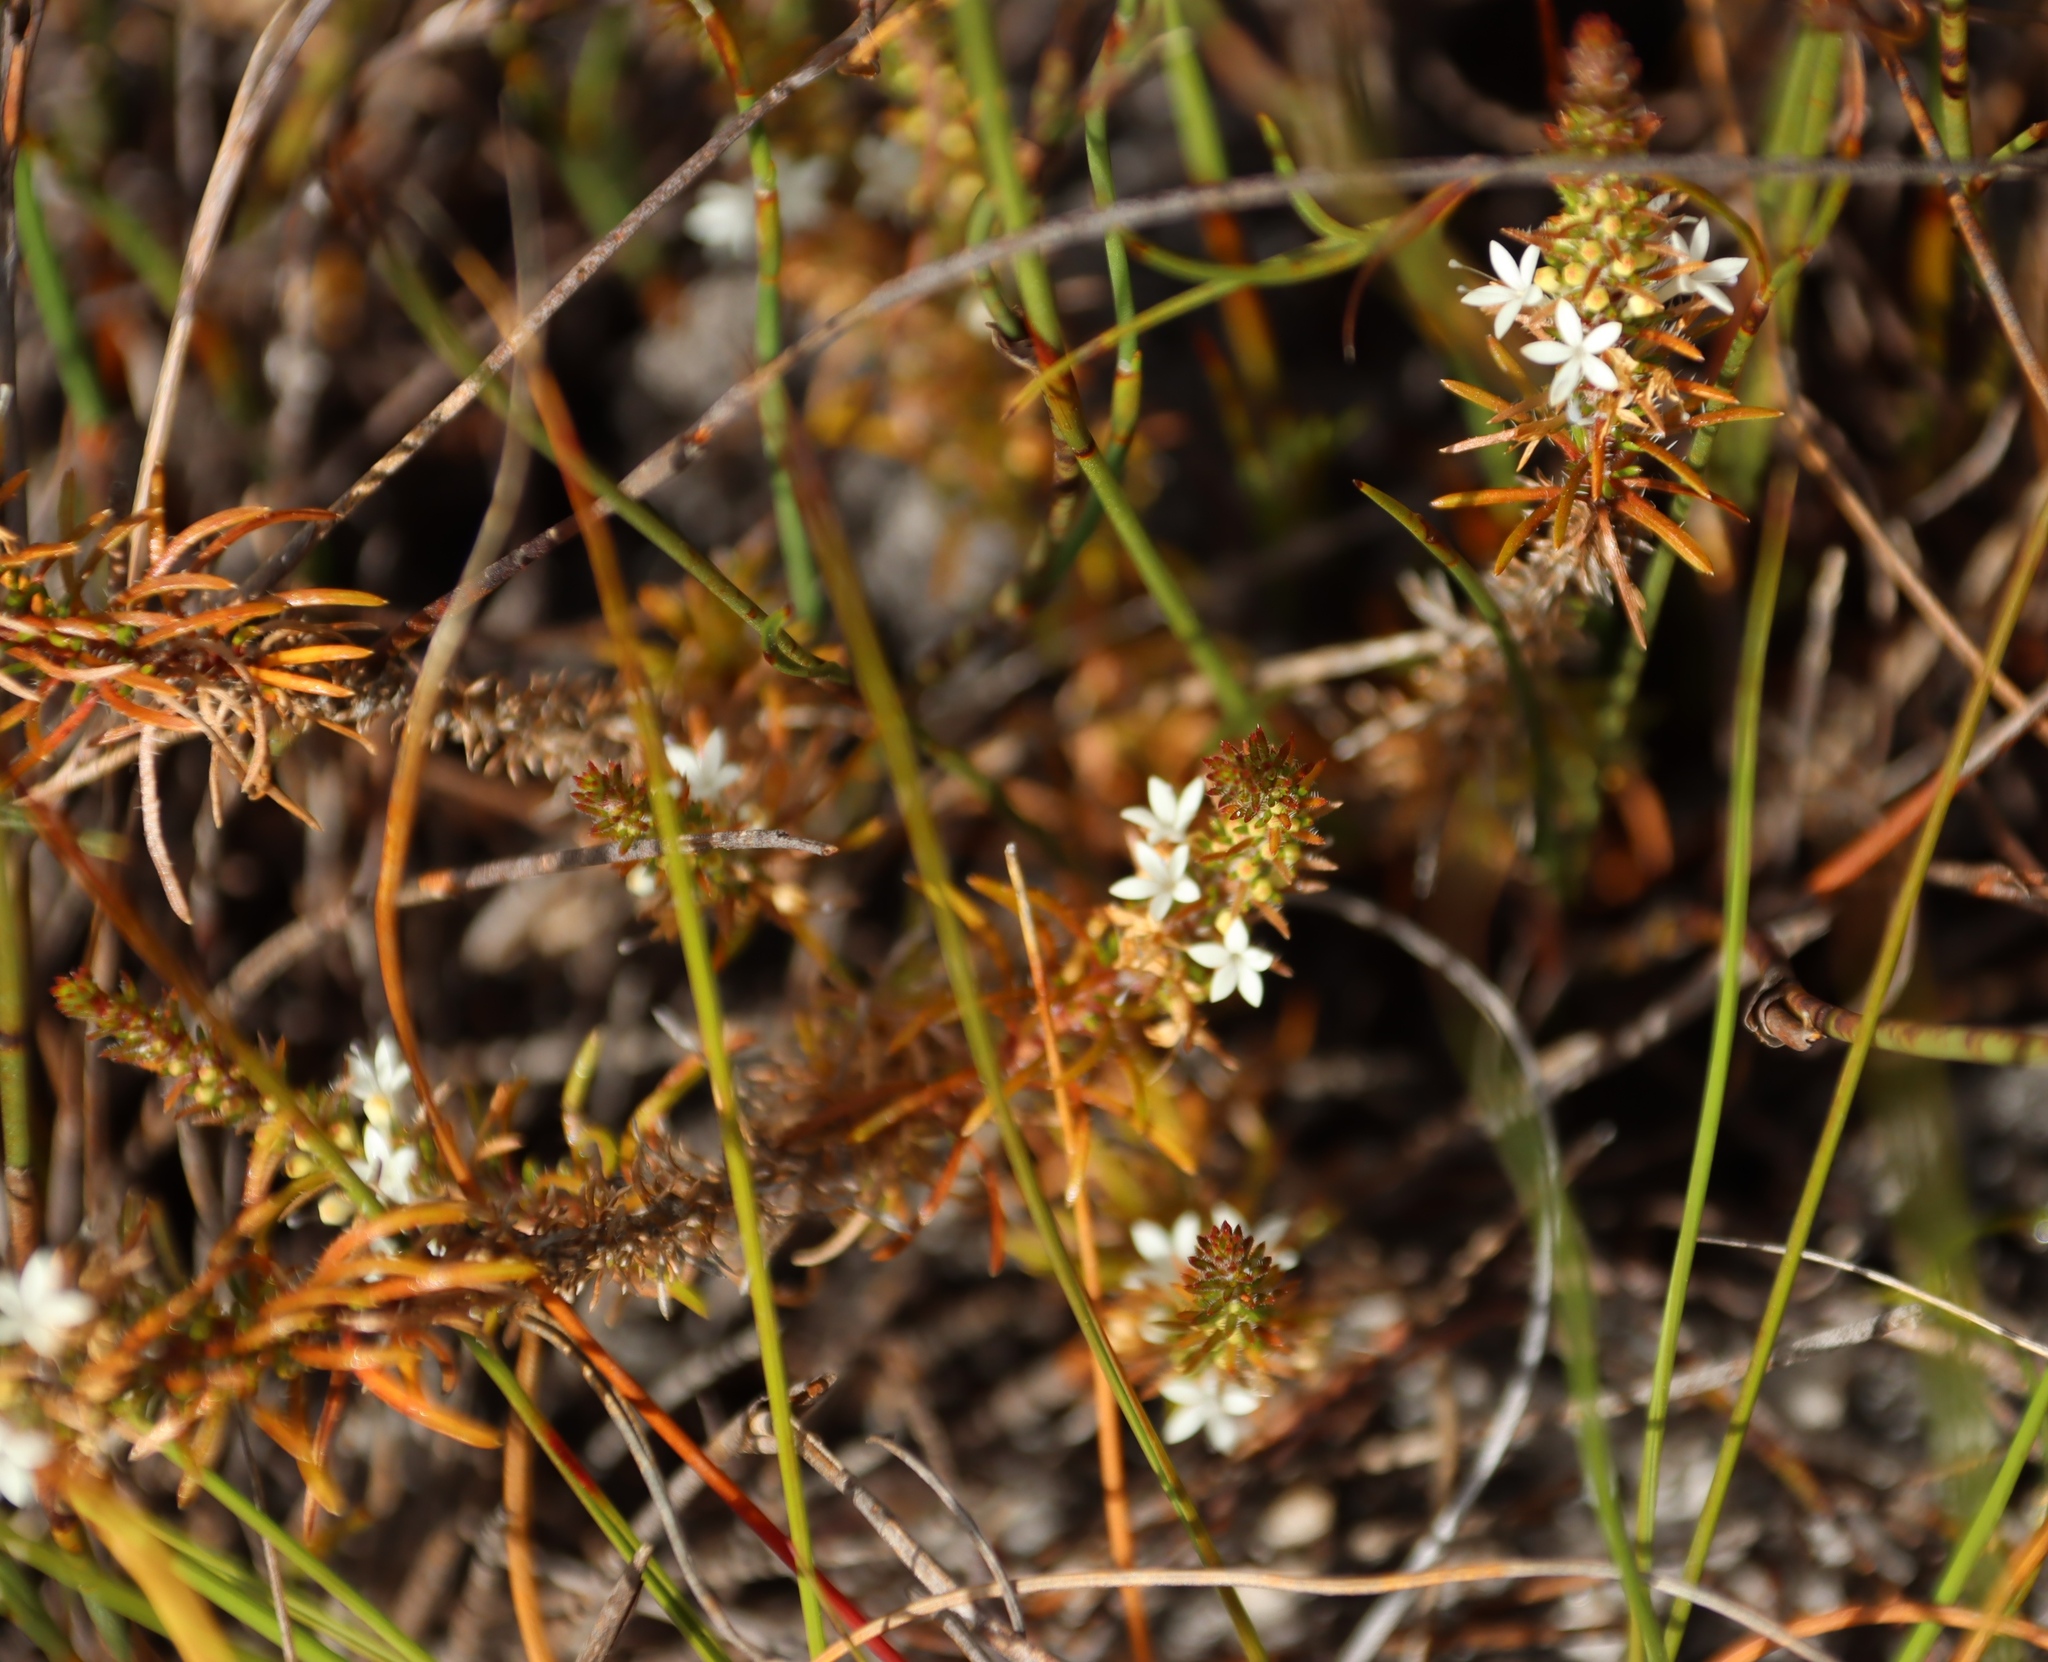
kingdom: Plantae
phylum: Tracheophyta
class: Magnoliopsida
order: Asterales
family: Campanulaceae
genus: Merciera
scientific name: Merciera leptoloba
